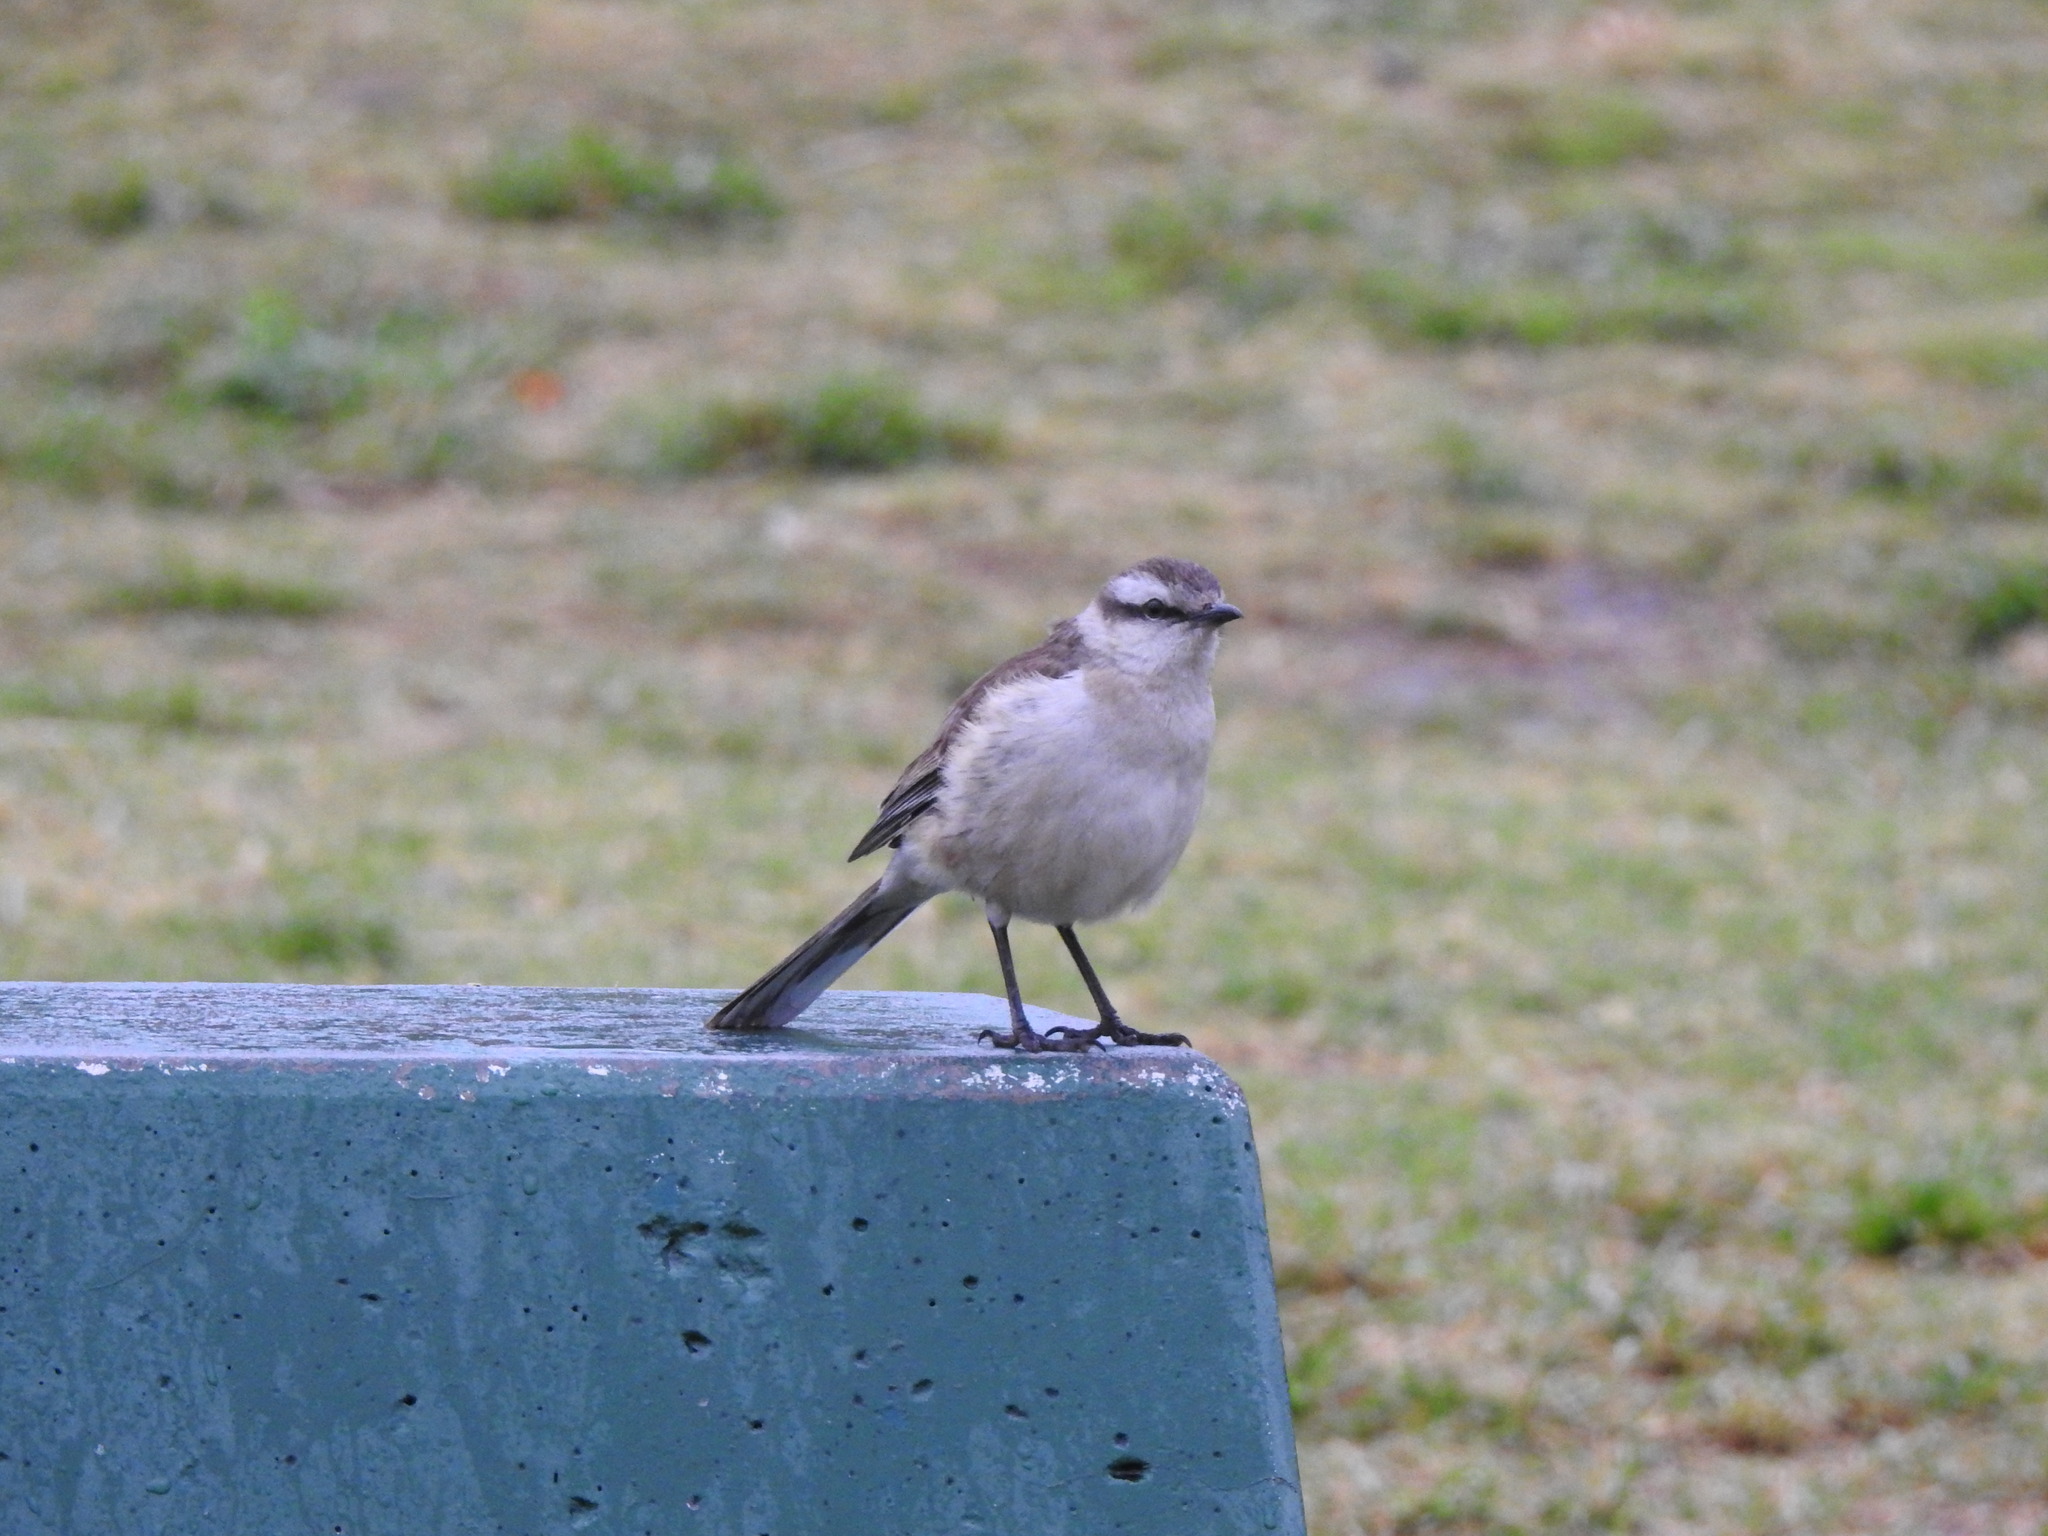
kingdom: Animalia
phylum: Chordata
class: Aves
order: Passeriformes
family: Mimidae
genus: Mimus
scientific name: Mimus saturninus
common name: Chalk-browed mockingbird
